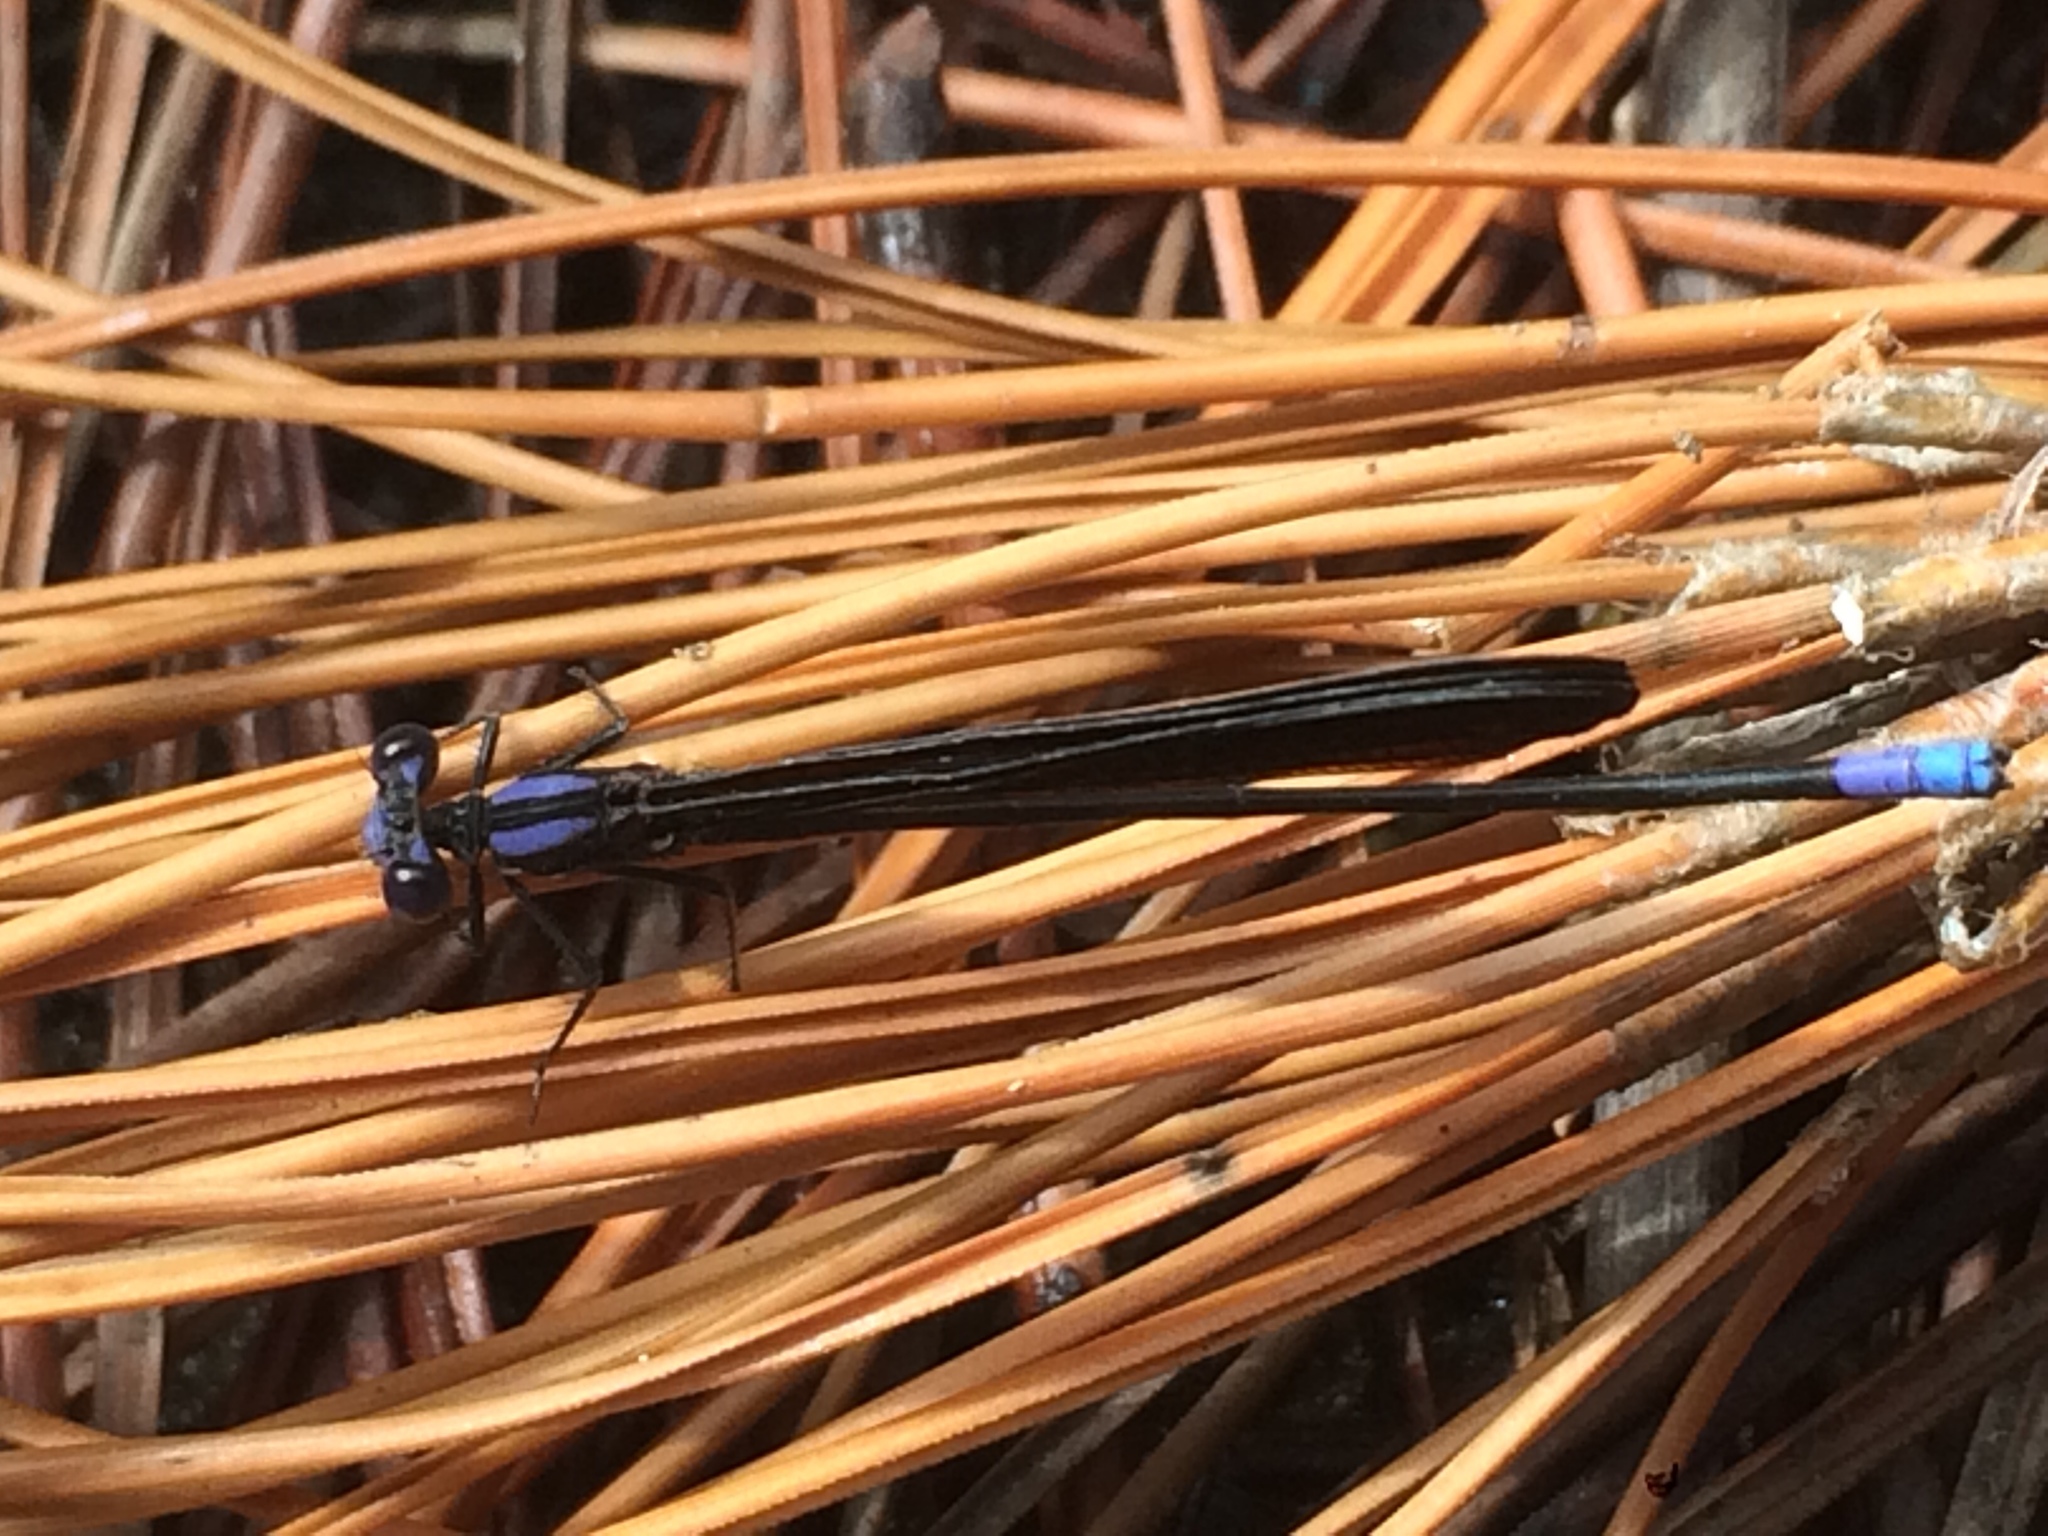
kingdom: Animalia
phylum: Arthropoda
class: Insecta
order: Odonata
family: Coenagrionidae
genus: Argia
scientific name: Argia fumipennis
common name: Variable dancer
